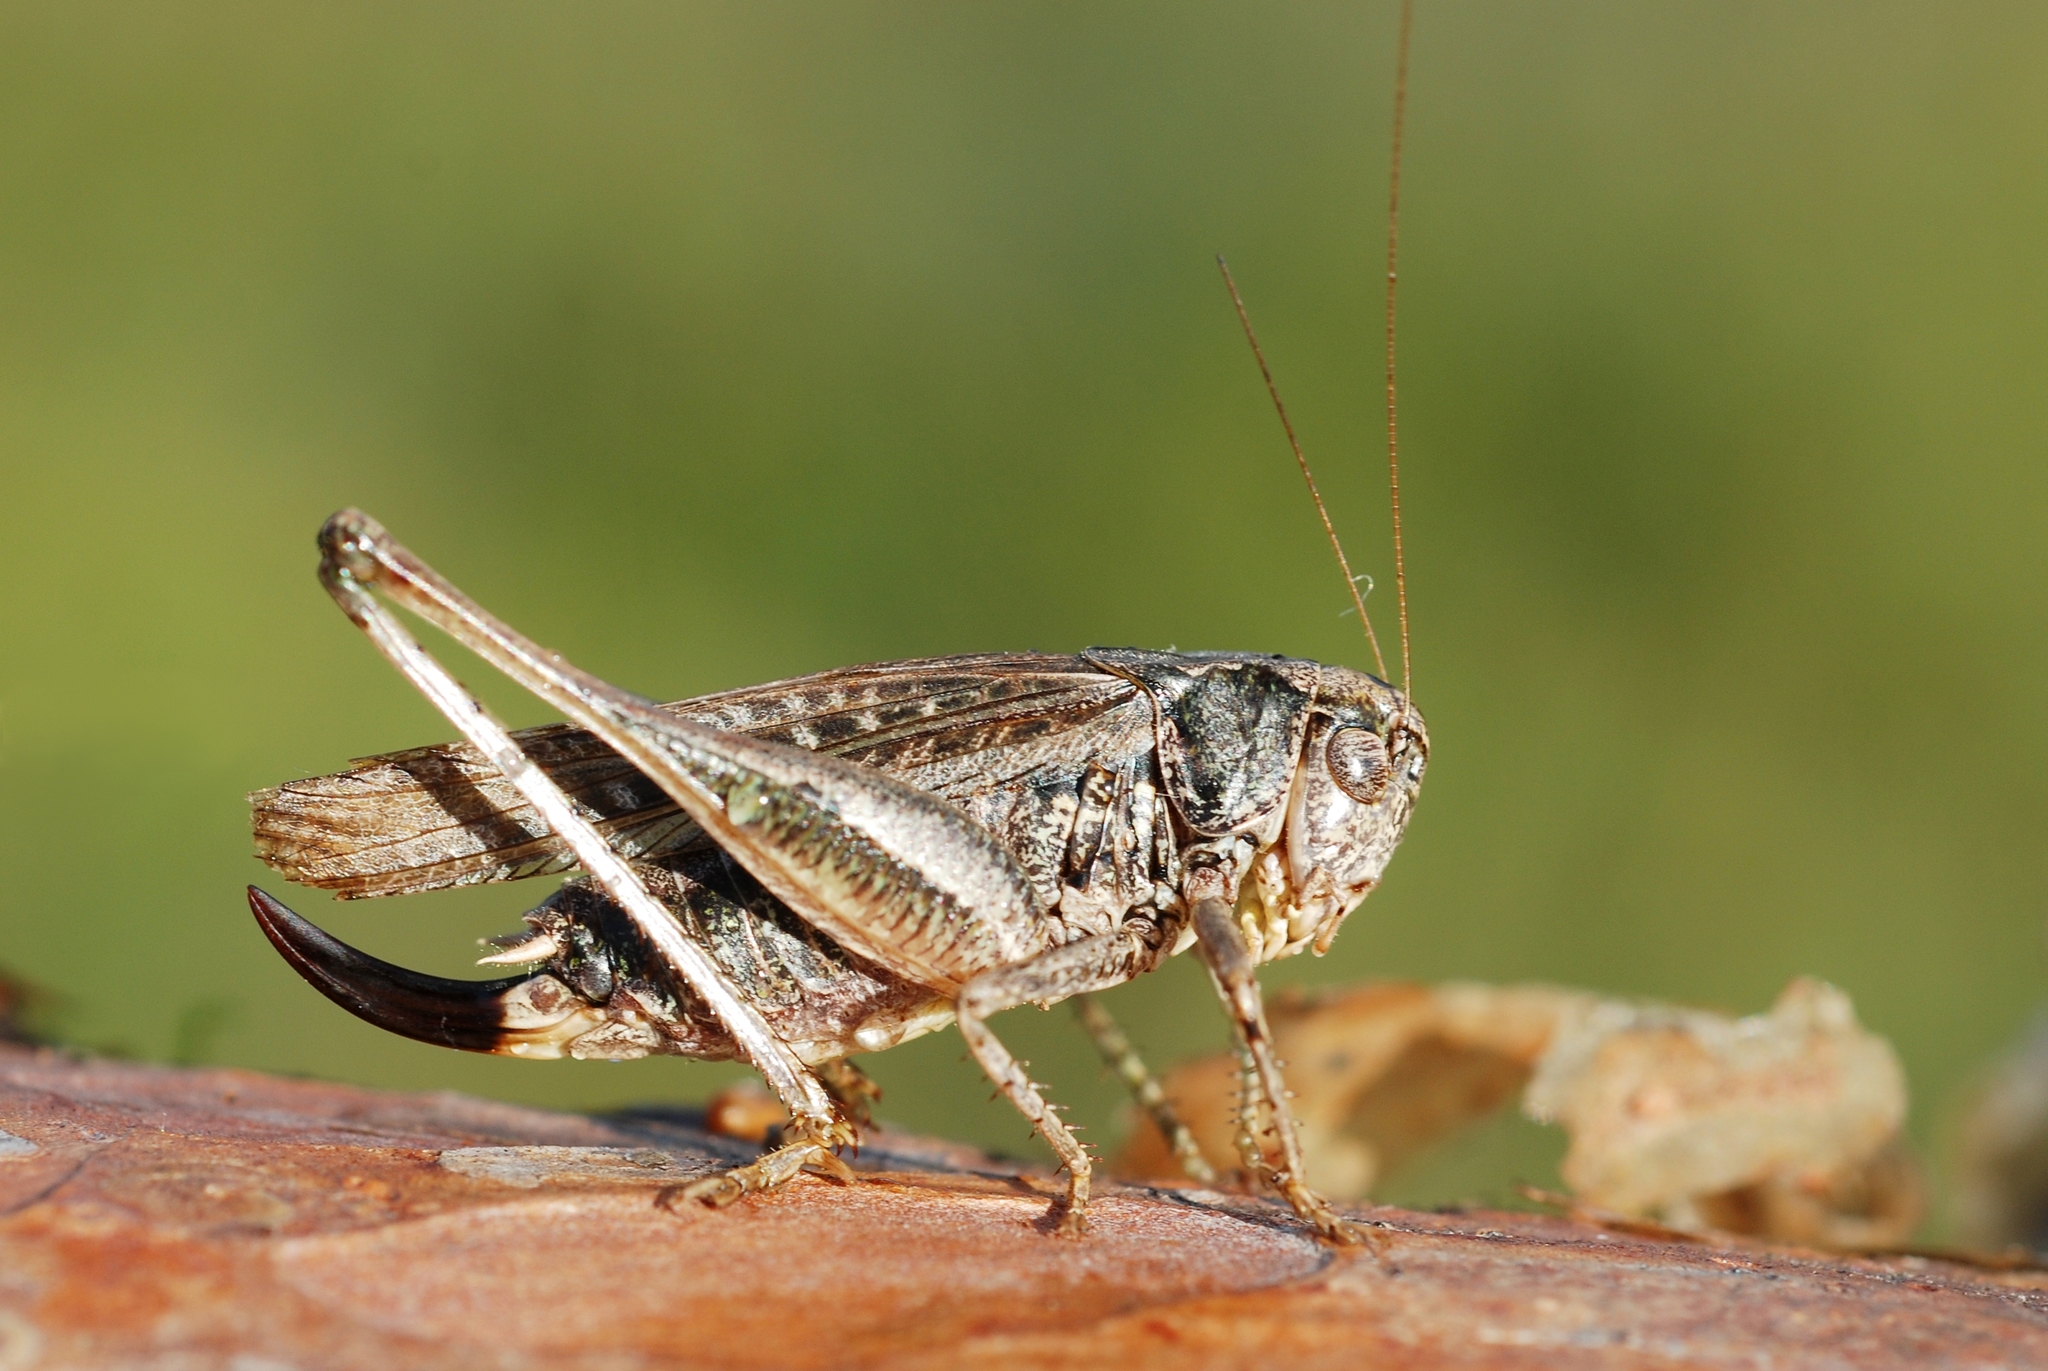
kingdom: Animalia
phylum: Arthropoda
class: Insecta
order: Orthoptera
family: Tettigoniidae
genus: Platycleis
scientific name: Platycleis albopunctata
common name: Grey bush-cricket
